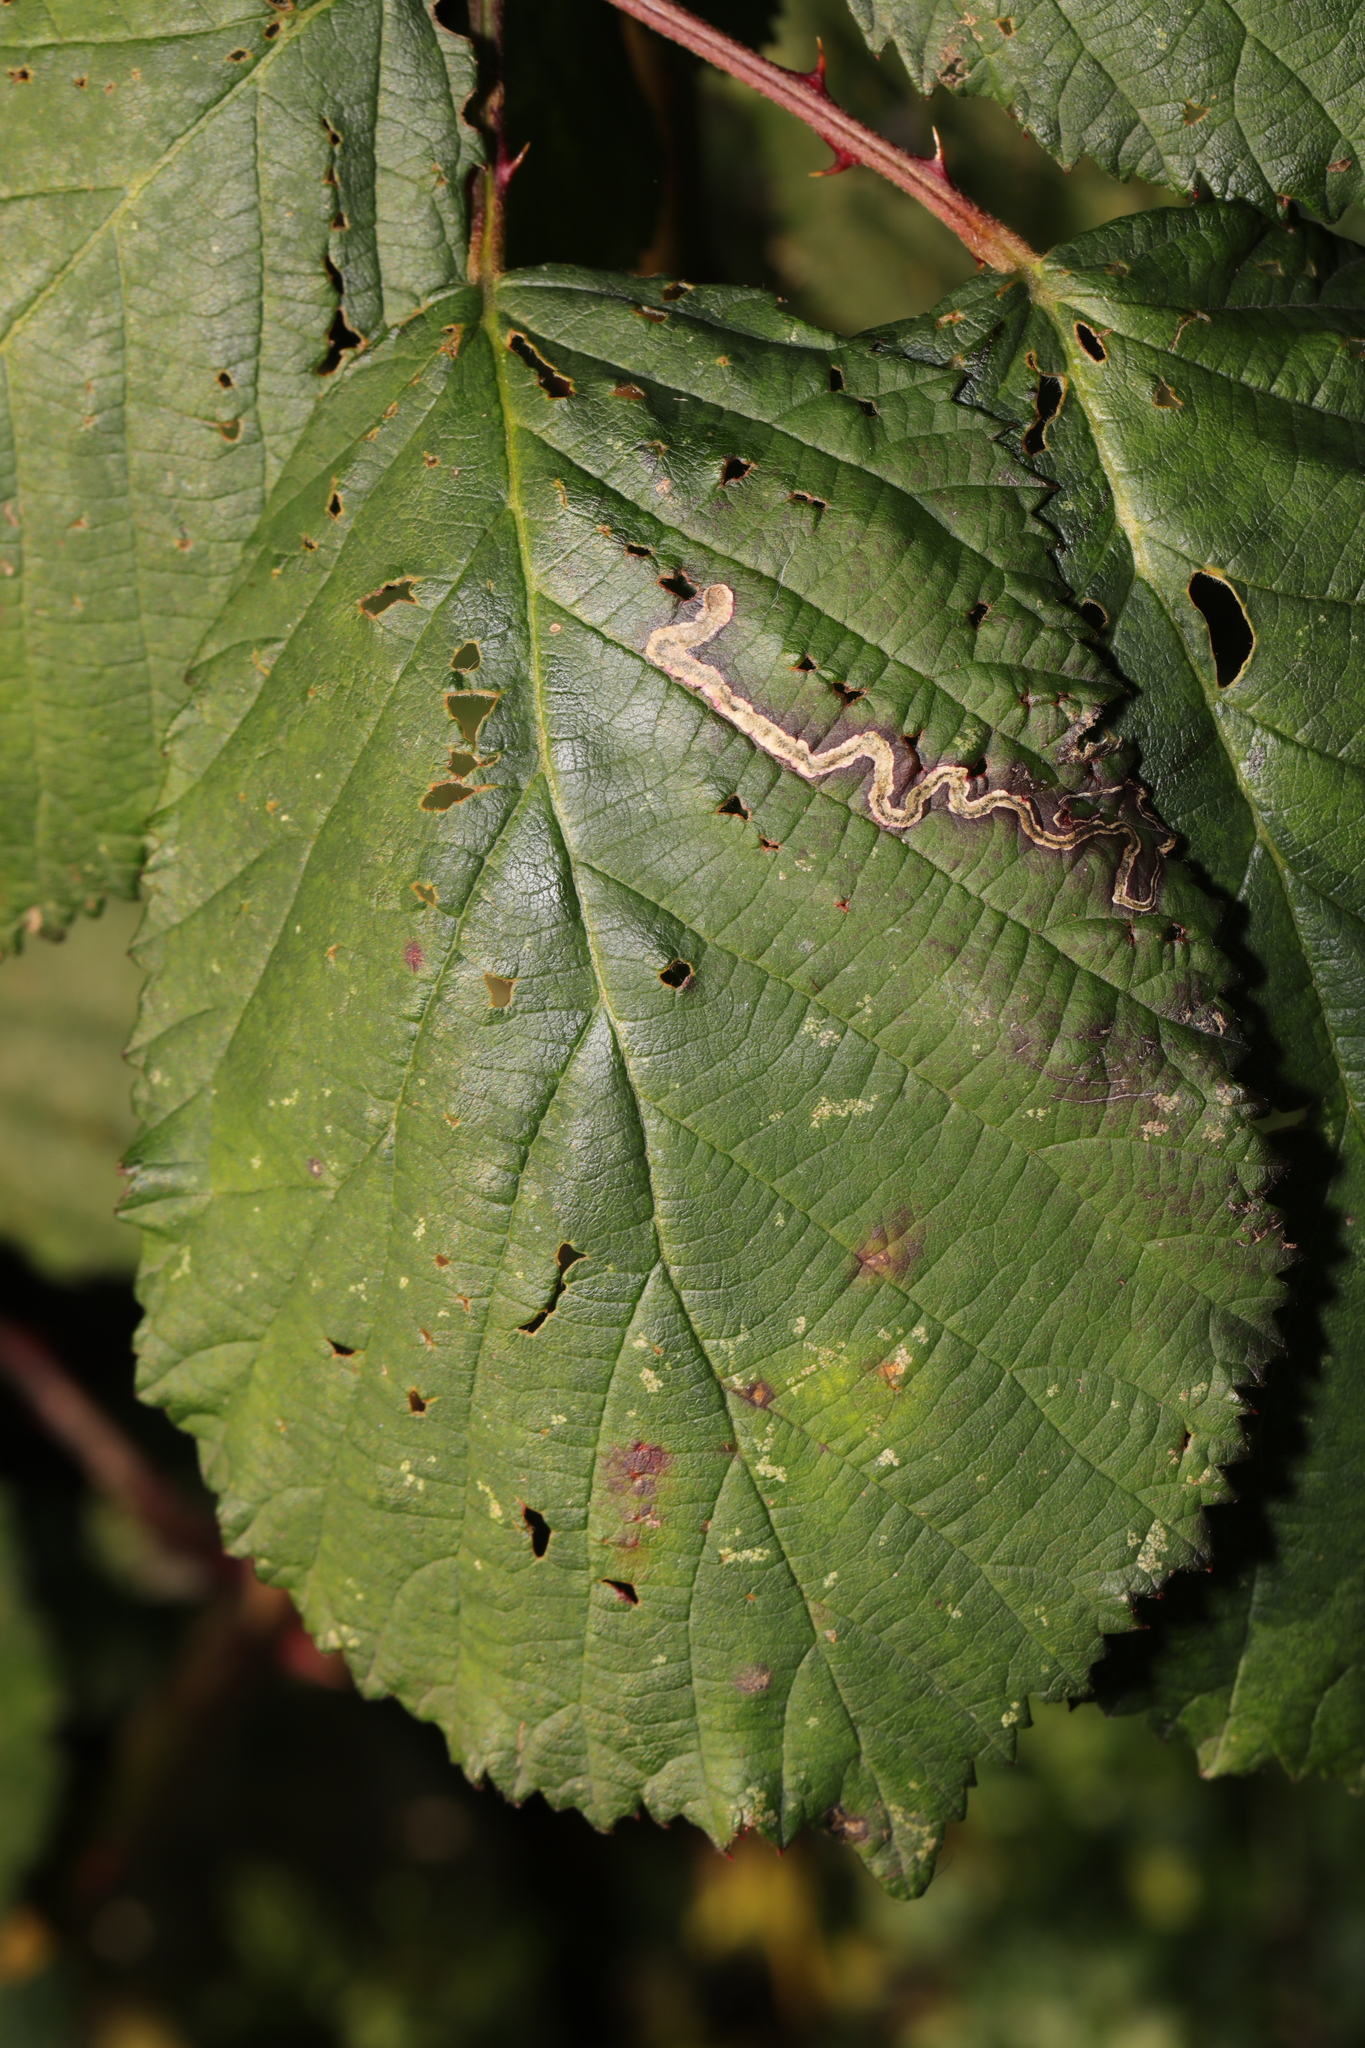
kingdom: Animalia
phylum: Arthropoda
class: Insecta
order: Lepidoptera
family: Nepticulidae
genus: Stigmella
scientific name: Stigmella aurella
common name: Golden pigmy
